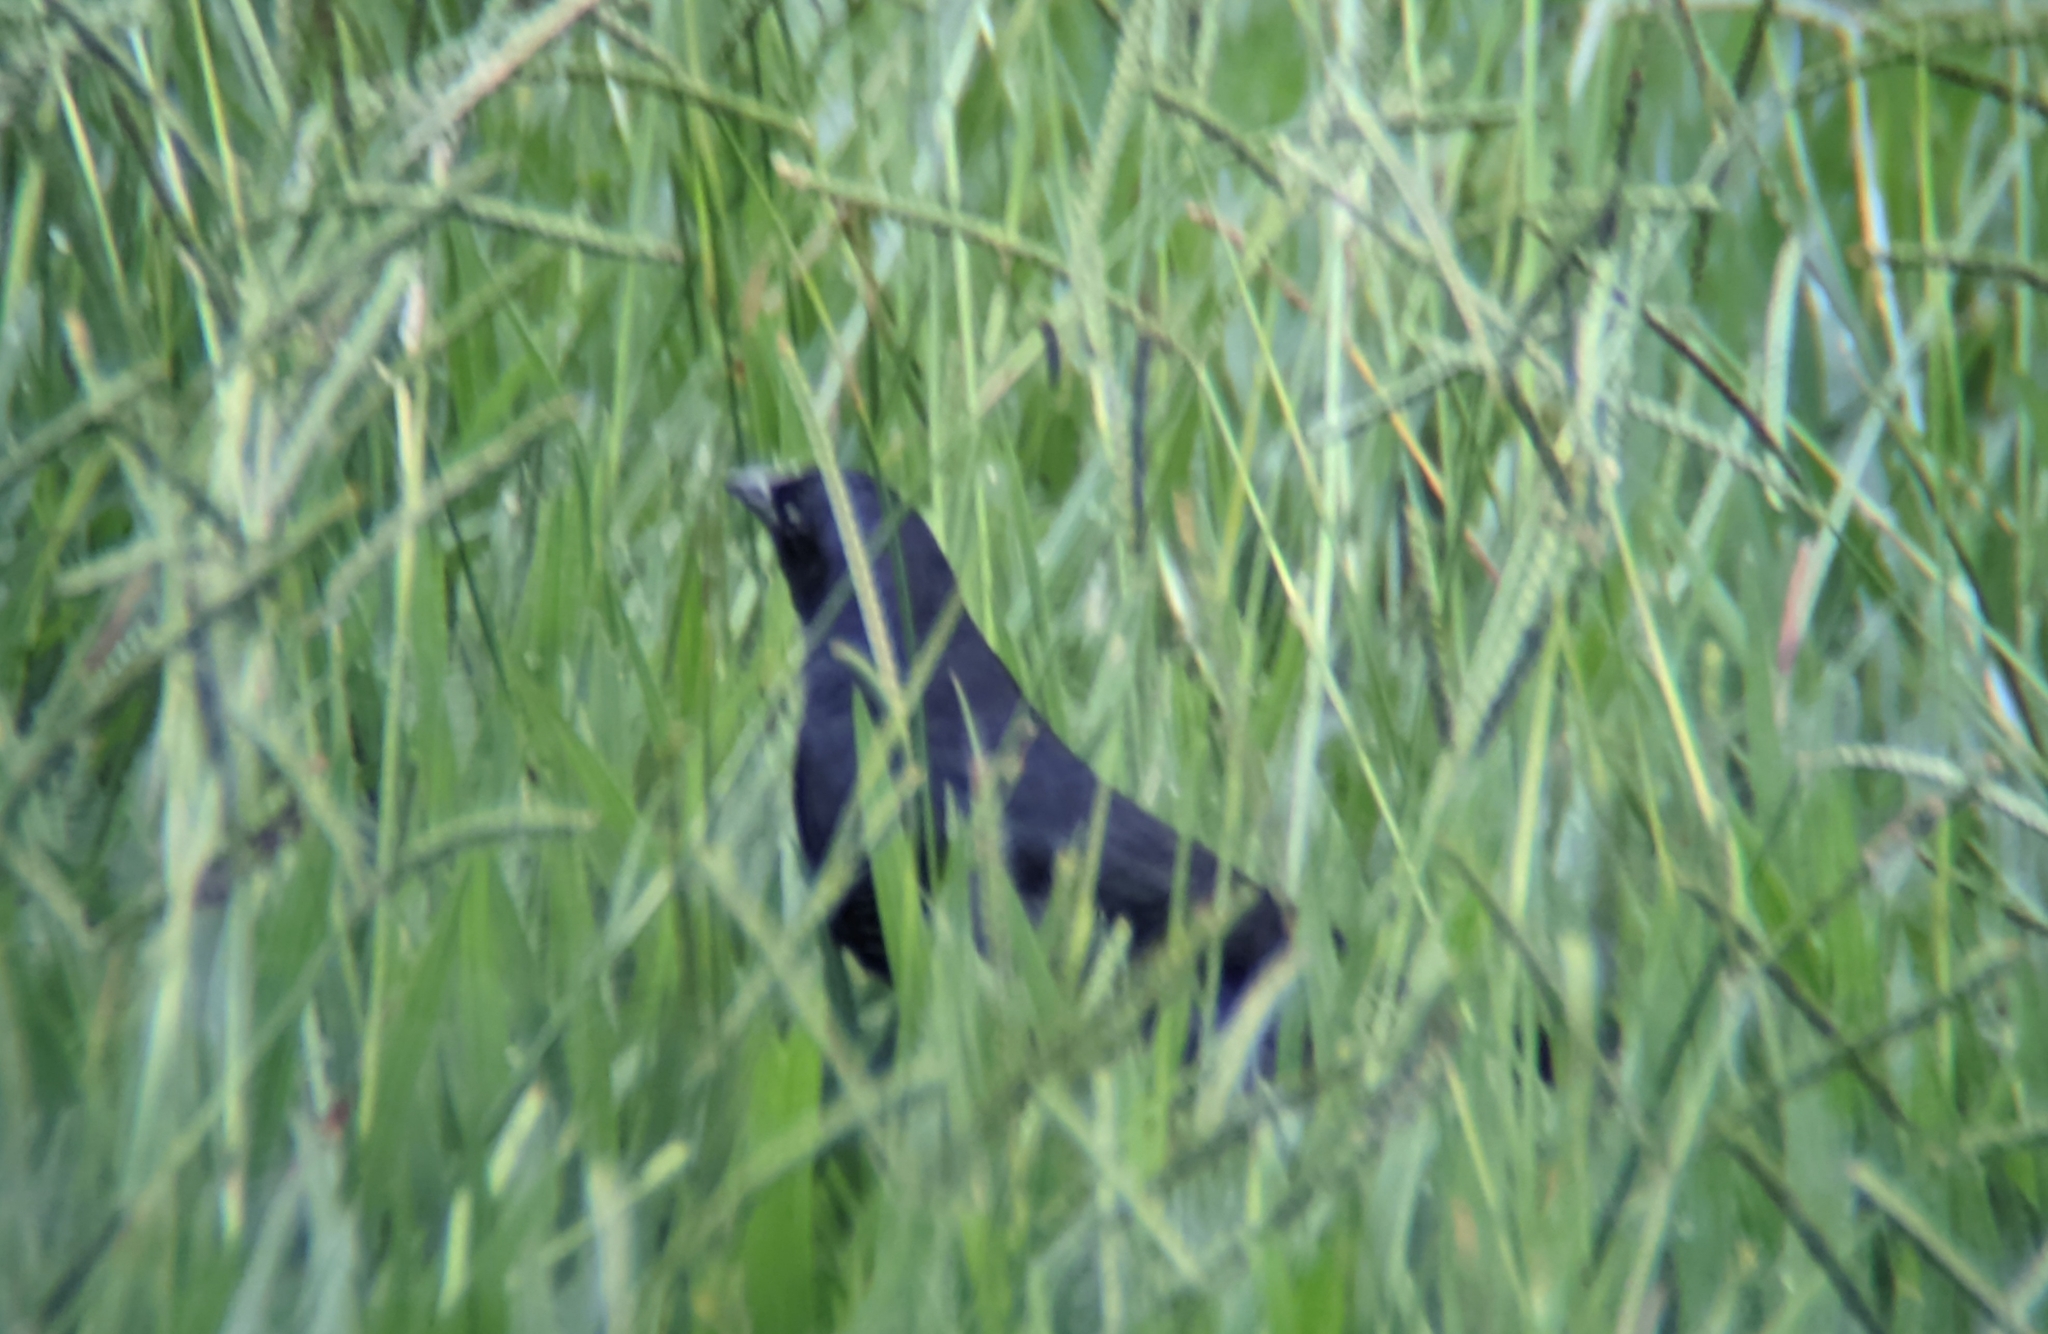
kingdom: Animalia
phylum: Chordata
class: Aves
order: Passeriformes
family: Icteridae
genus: Molothrus
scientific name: Molothrus bonariensis
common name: Shiny cowbird
